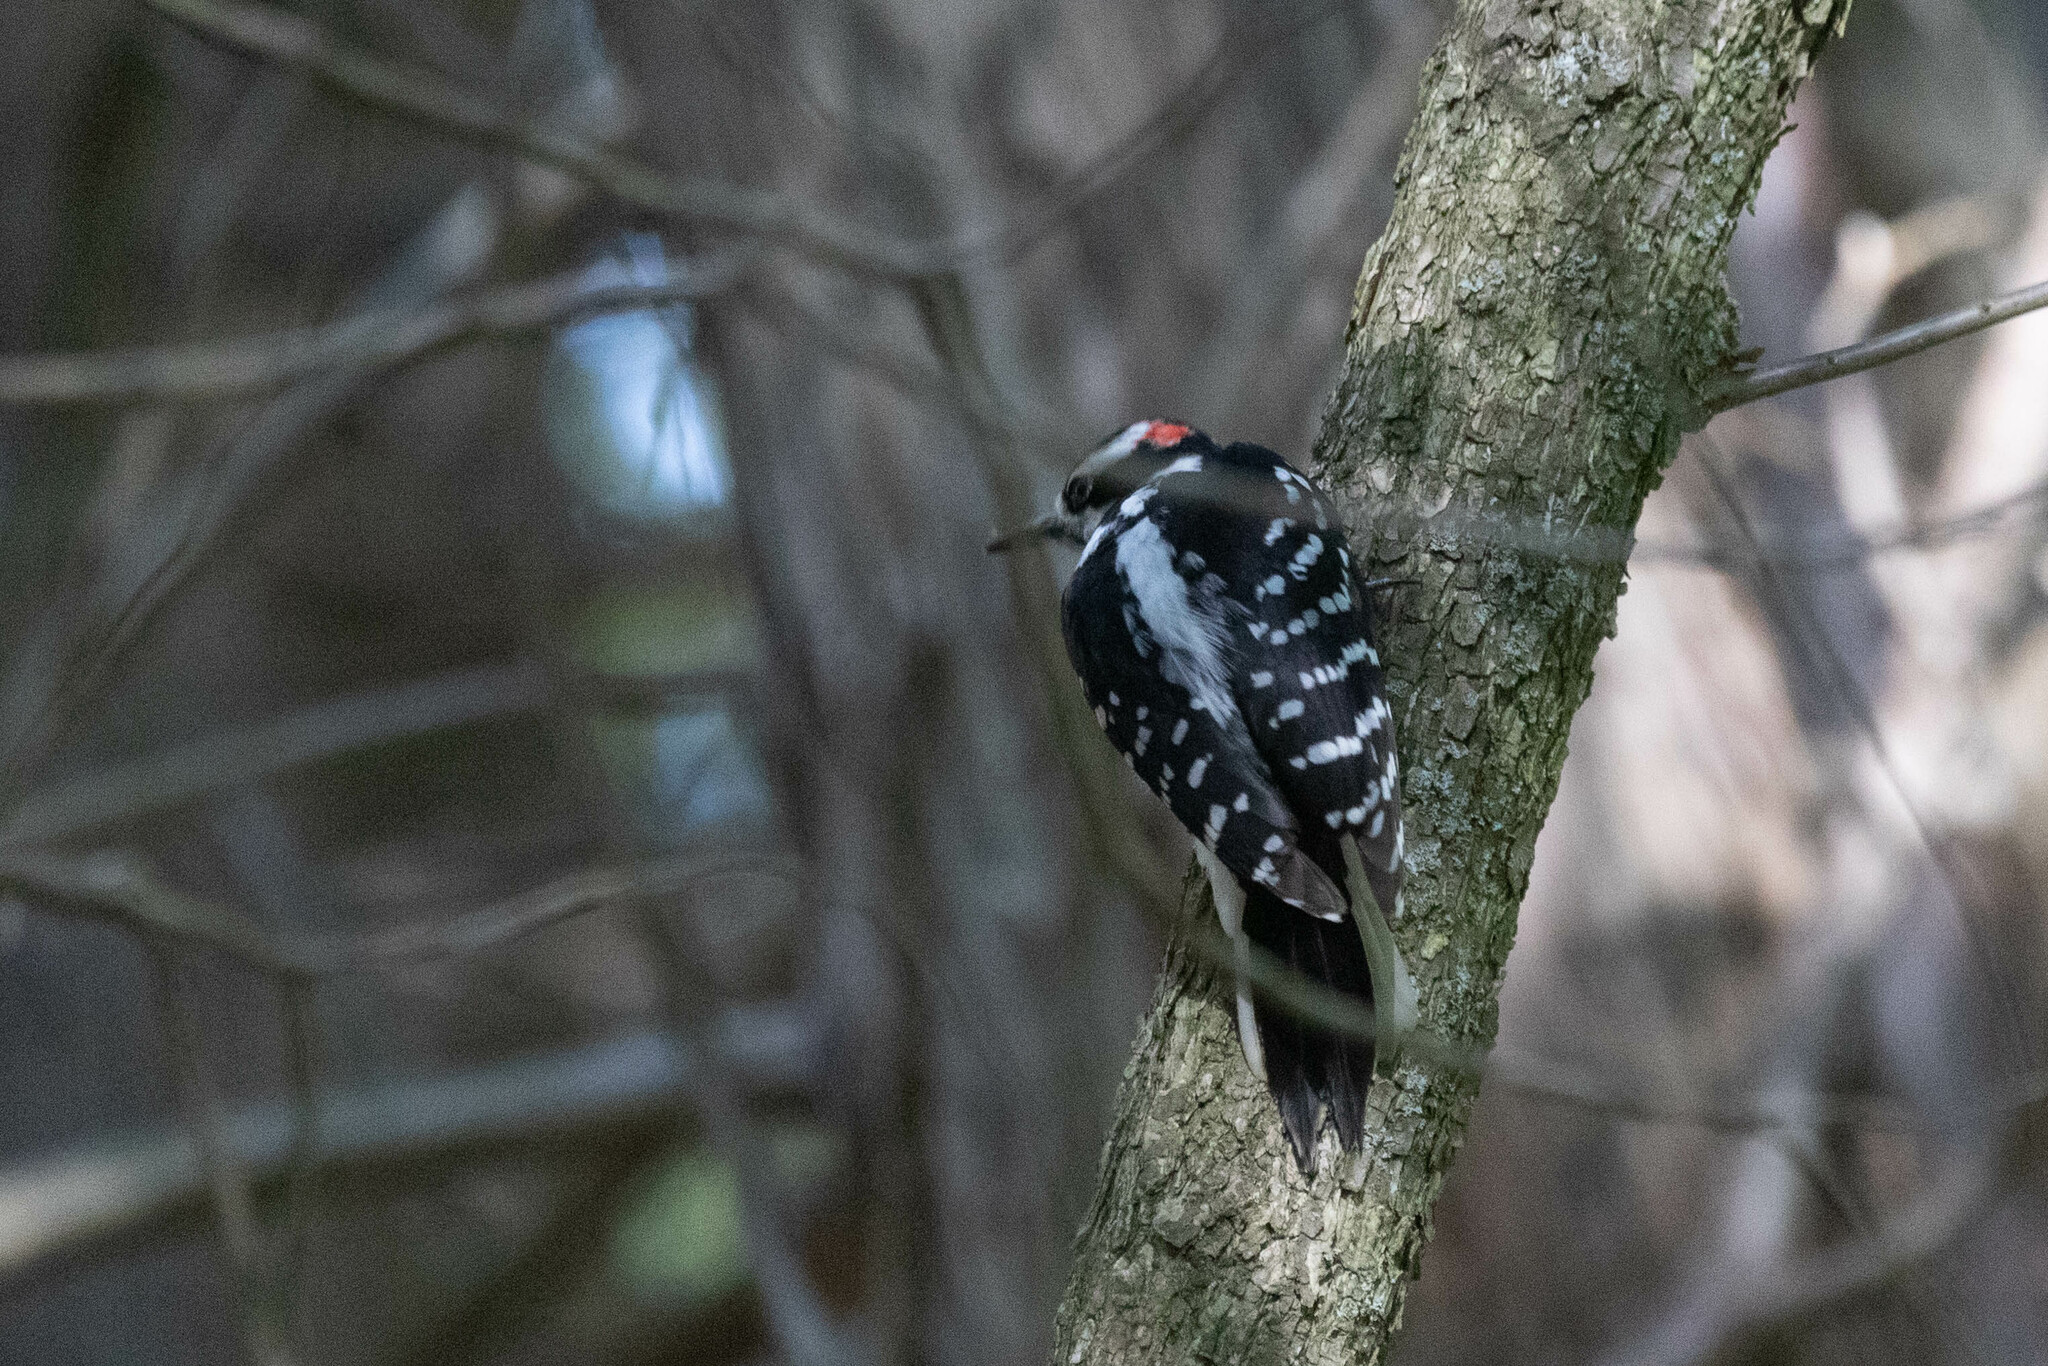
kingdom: Animalia
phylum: Chordata
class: Aves
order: Piciformes
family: Picidae
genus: Leuconotopicus
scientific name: Leuconotopicus villosus
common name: Hairy woodpecker
